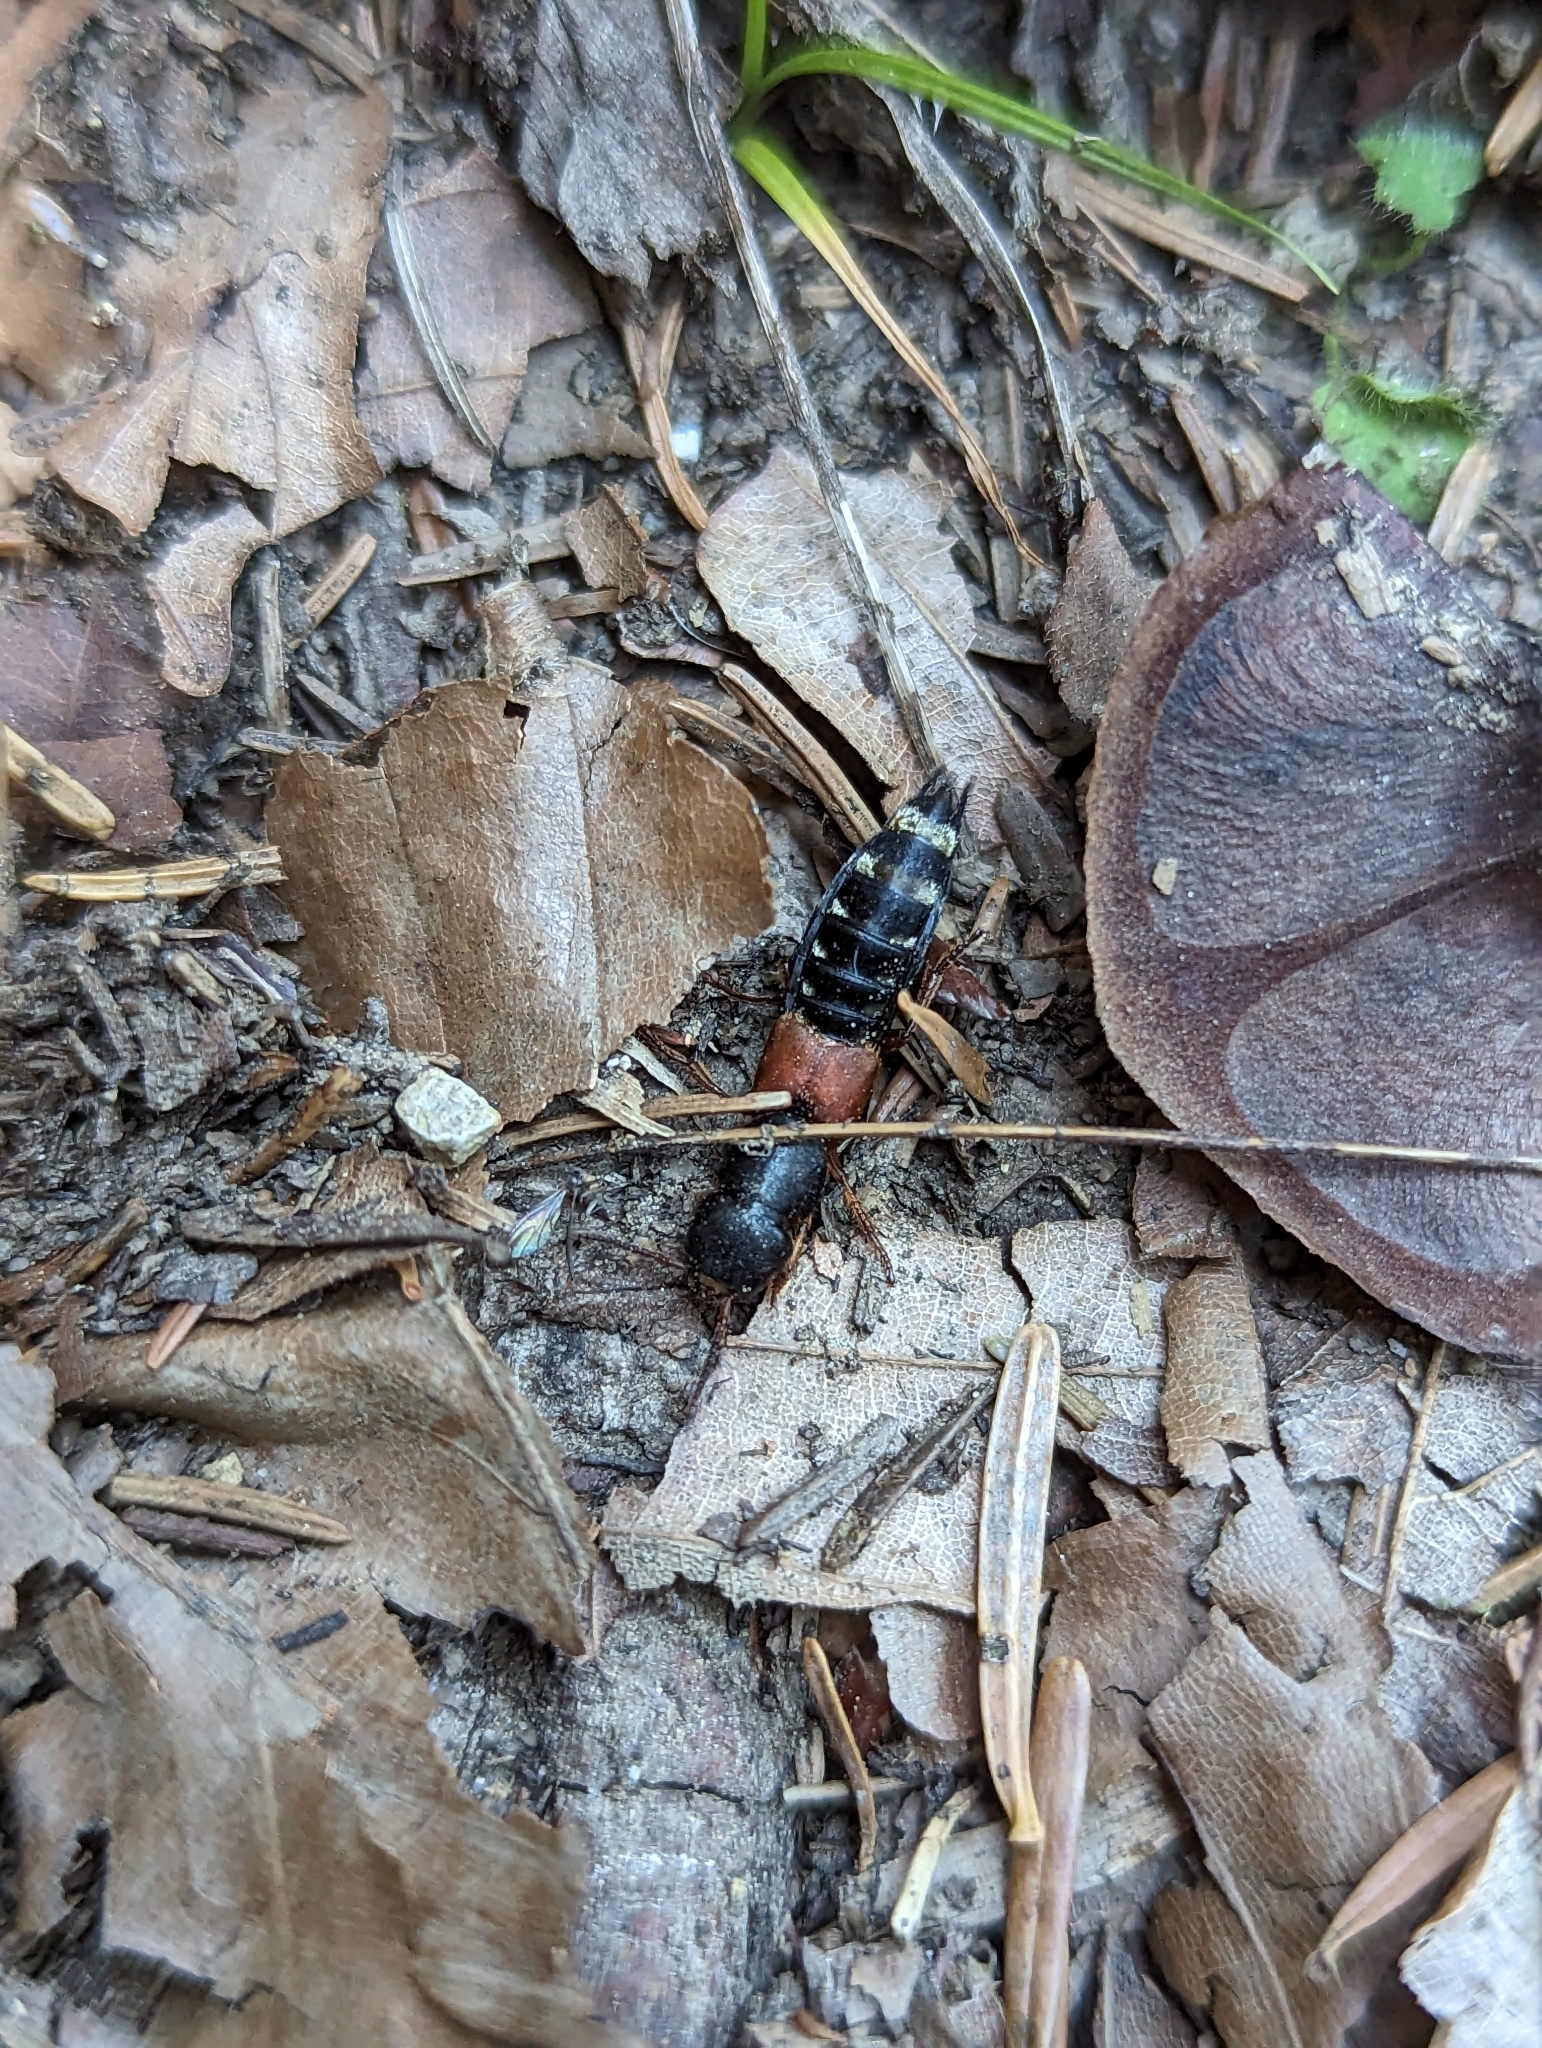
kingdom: Animalia
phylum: Arthropoda
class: Insecta
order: Coleoptera
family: Staphylinidae
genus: Platydracus
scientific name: Platydracus stercorarius
